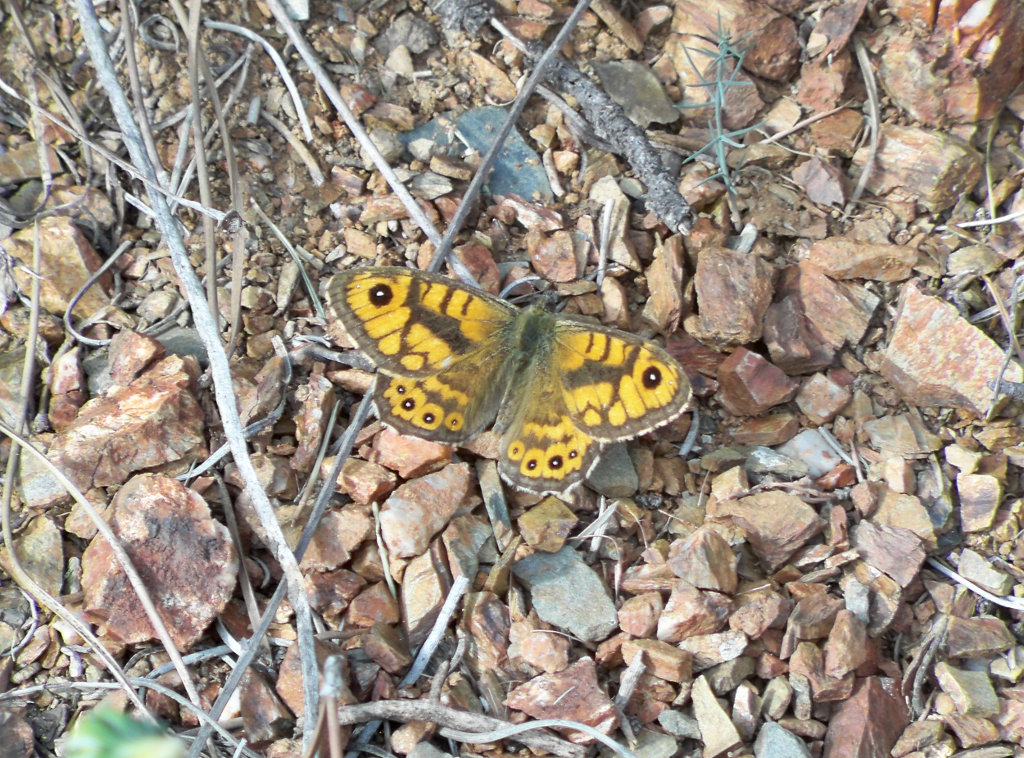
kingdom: Animalia
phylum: Arthropoda
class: Insecta
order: Lepidoptera
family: Nymphalidae
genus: Pararge
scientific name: Pararge Lasiommata megera
